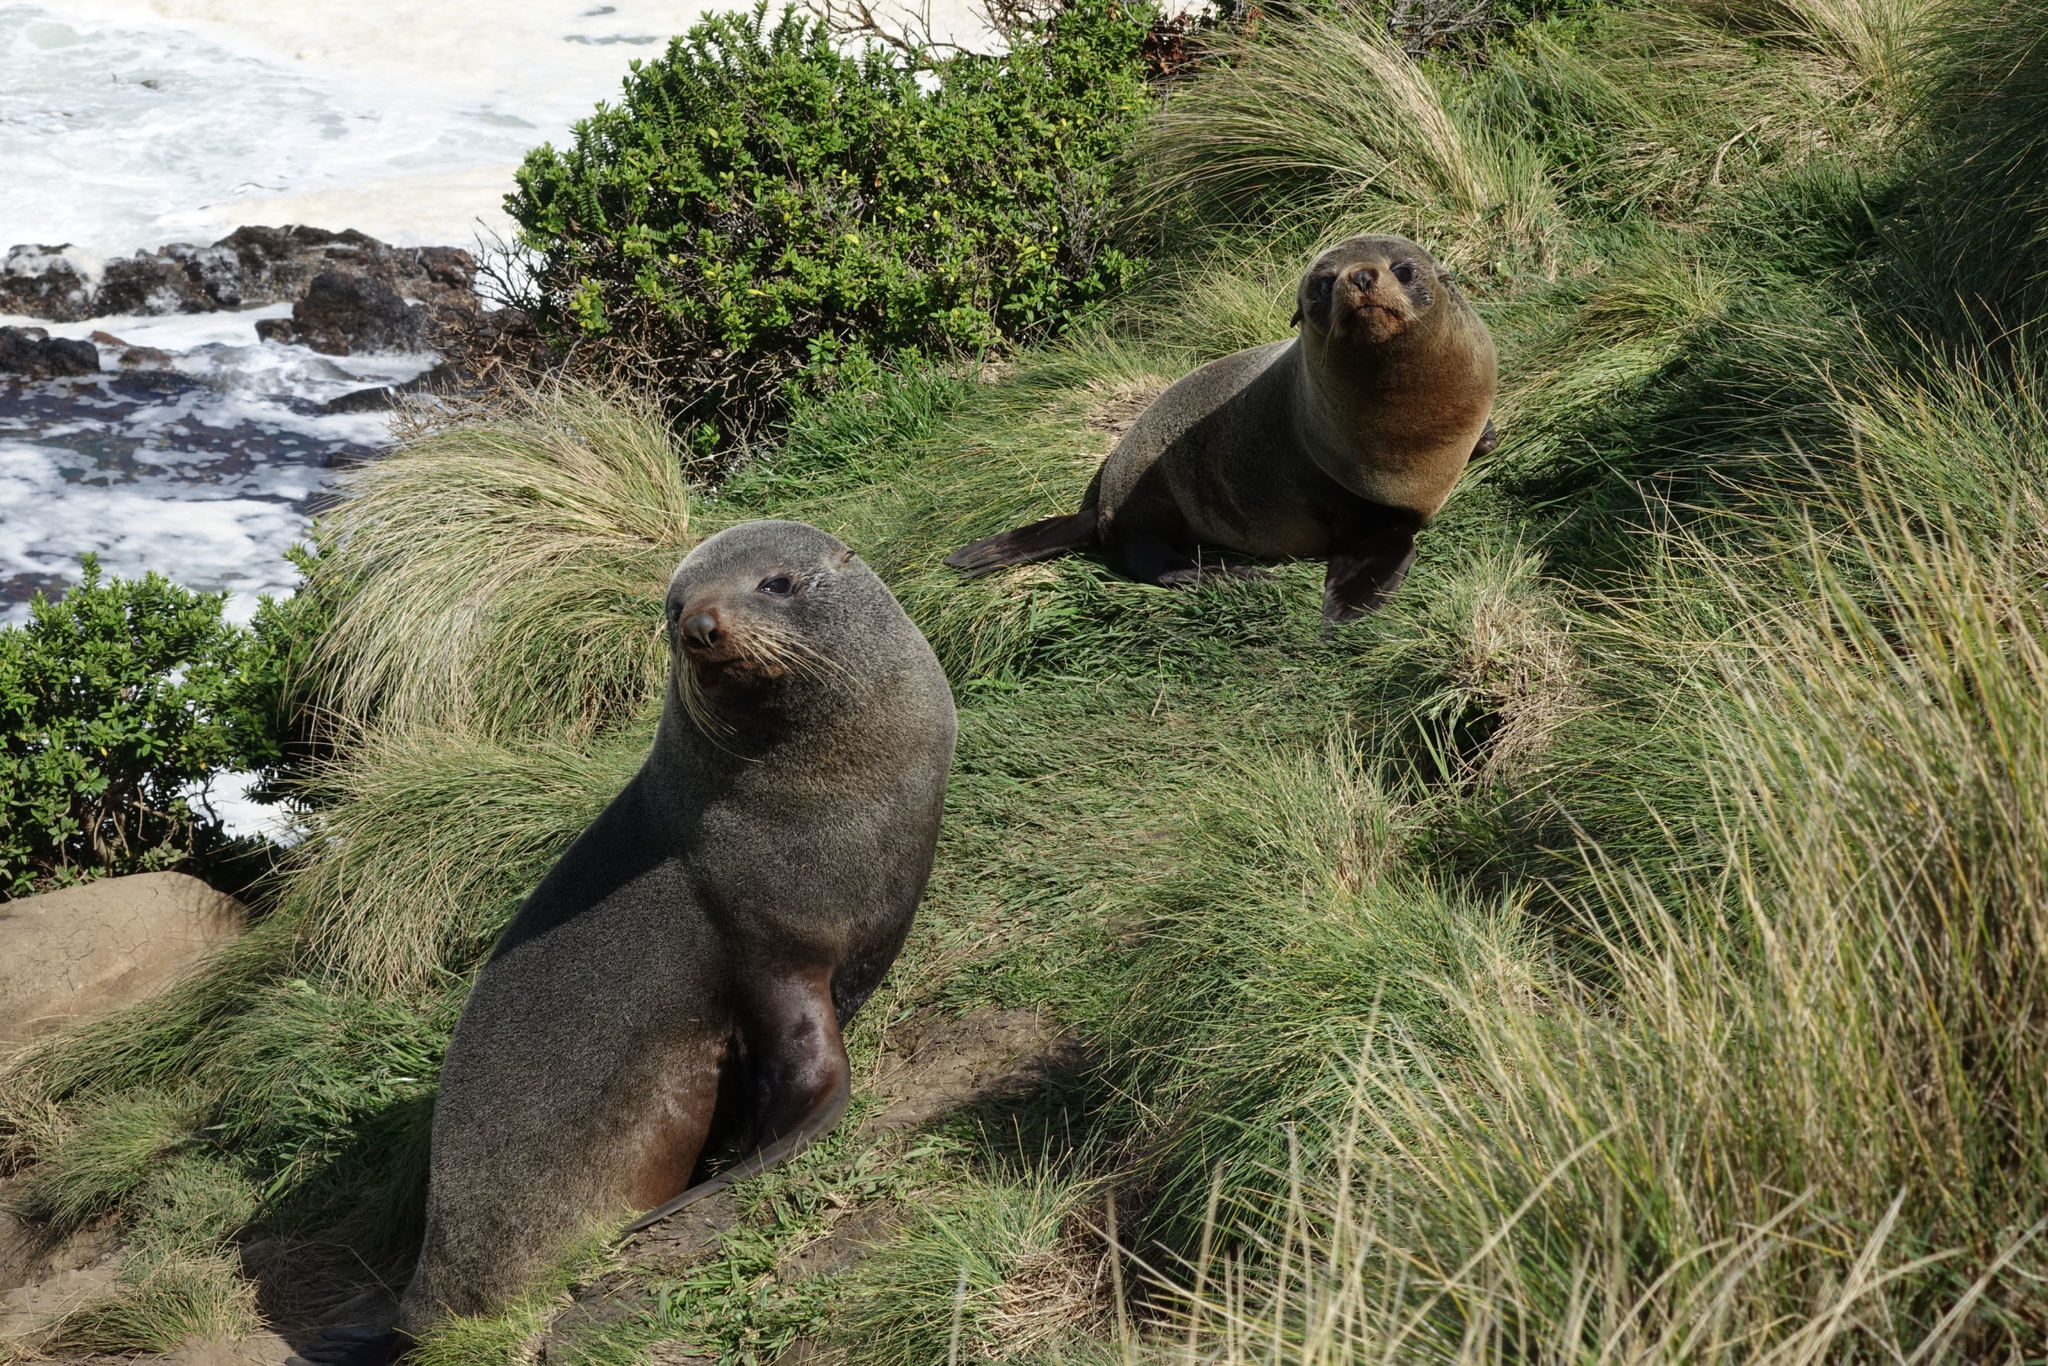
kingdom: Animalia
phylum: Chordata
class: Mammalia
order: Carnivora
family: Otariidae
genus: Arctocephalus
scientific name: Arctocephalus forsteri
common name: New zealand fur seal
